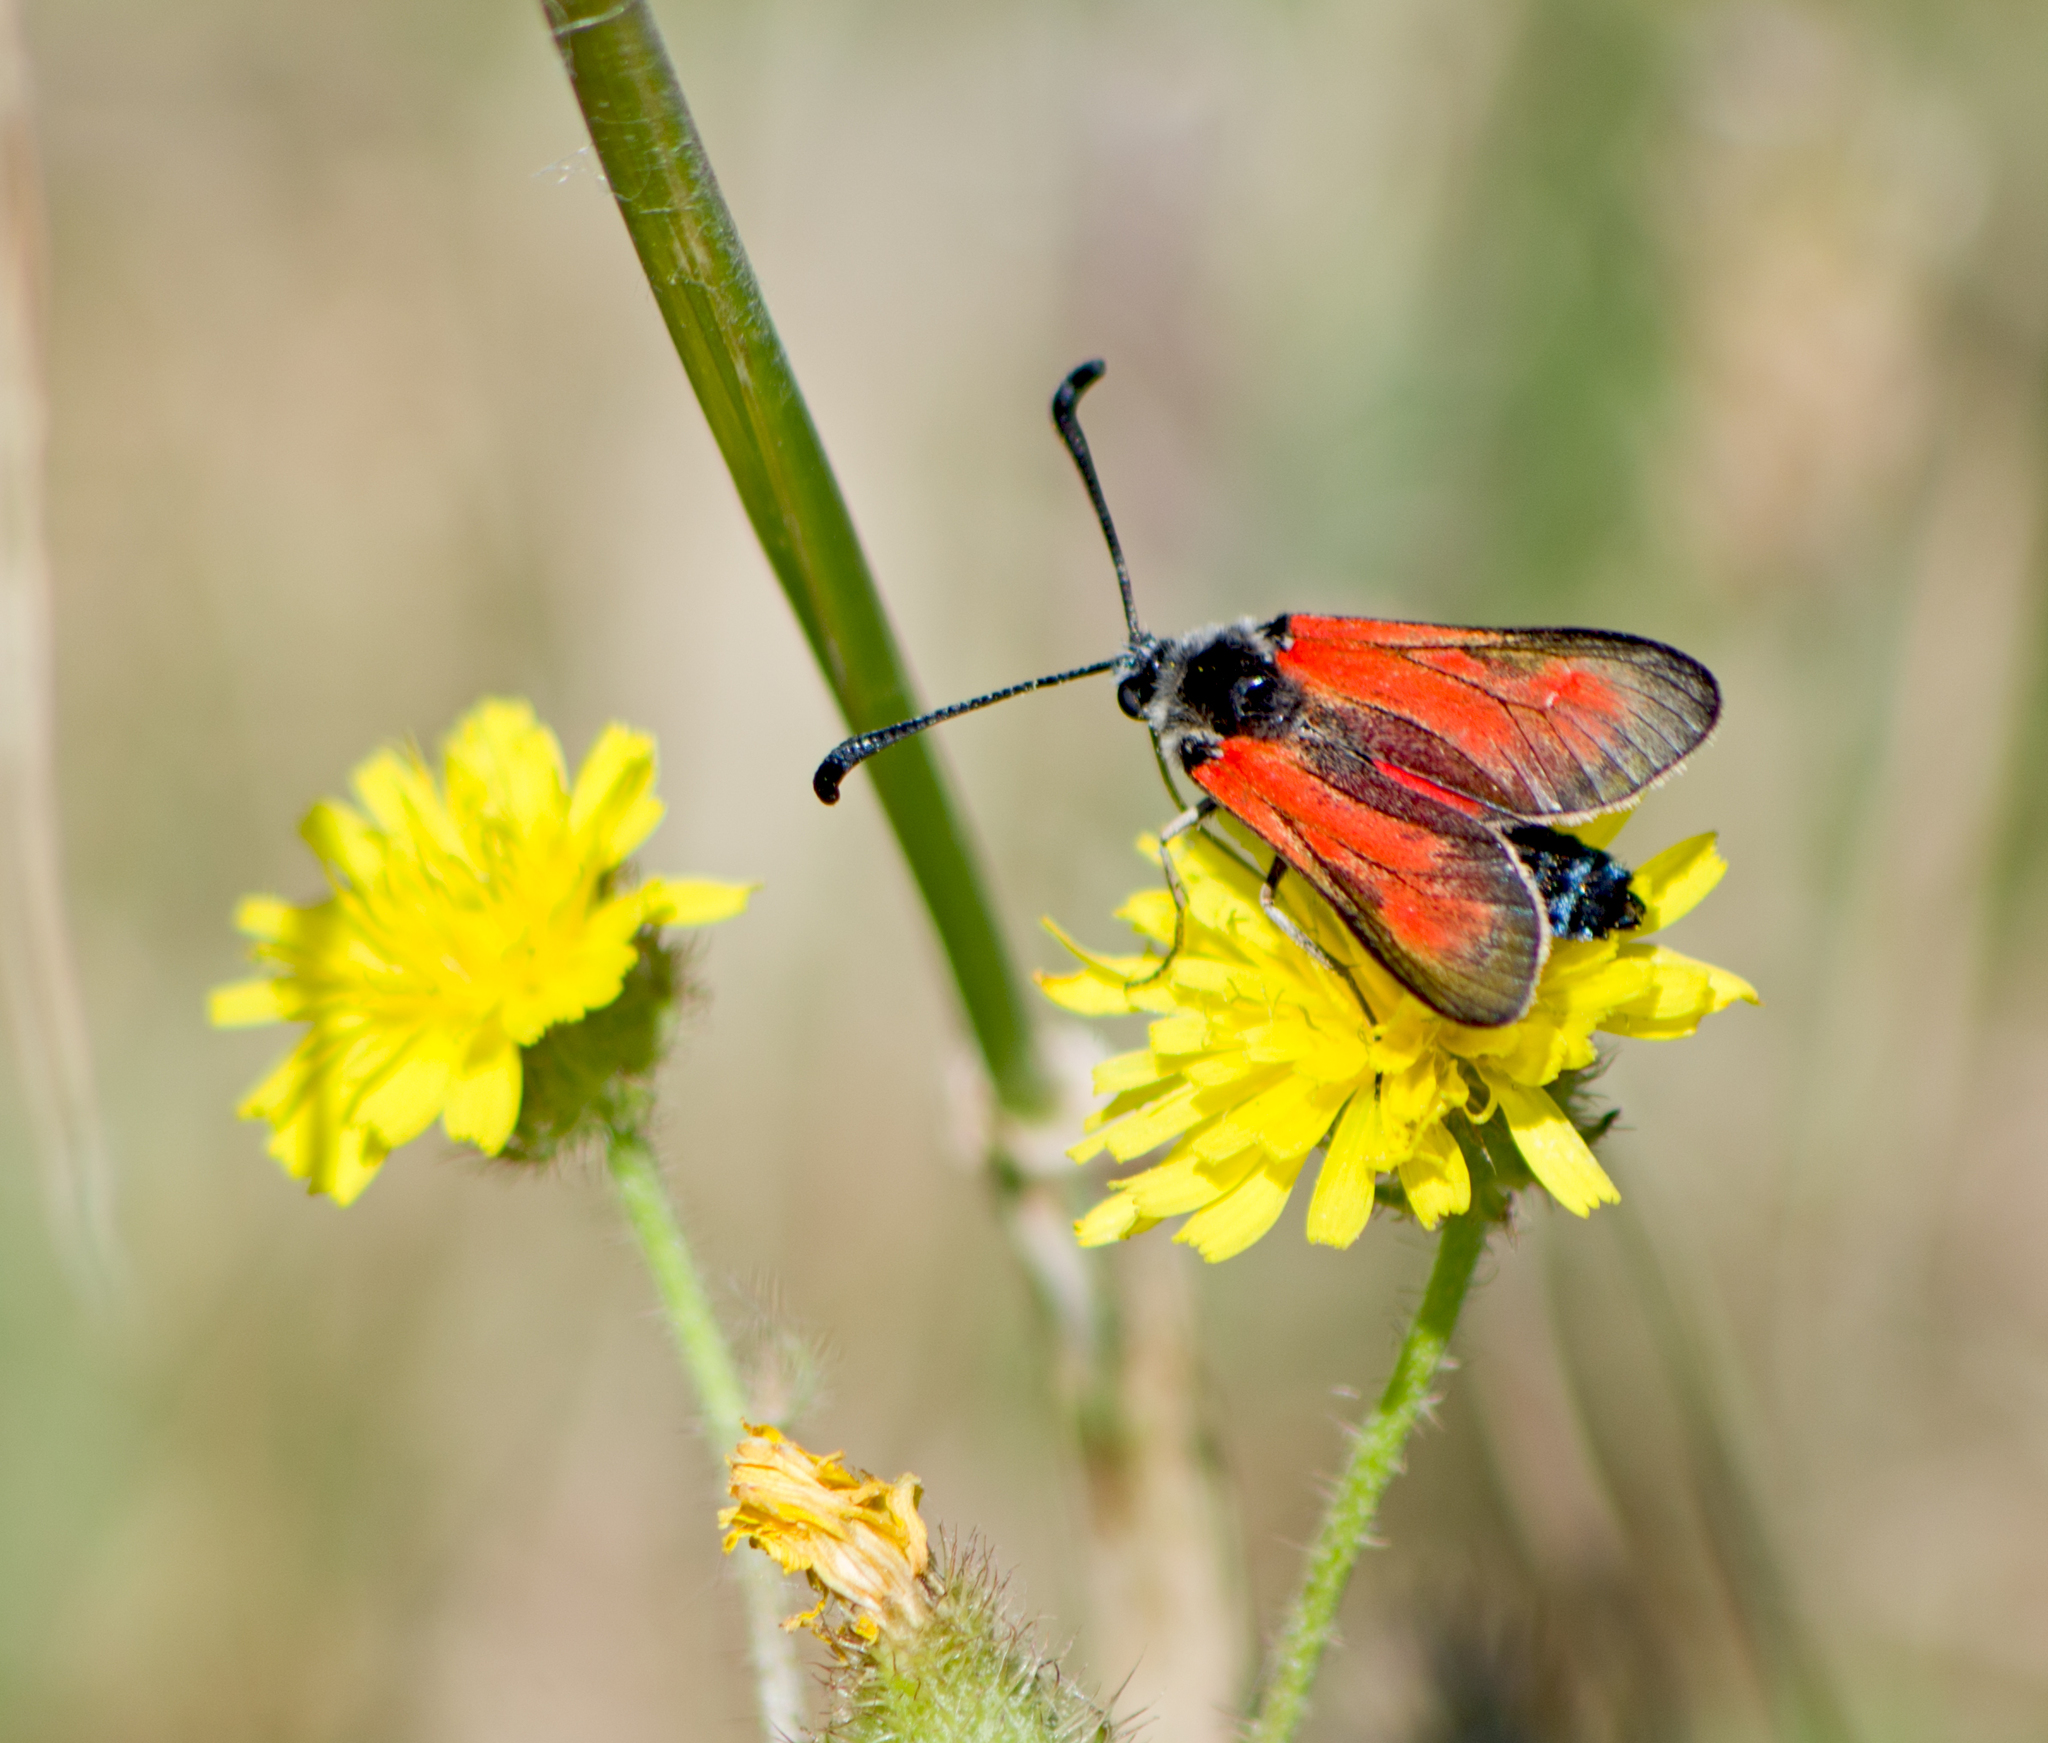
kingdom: Animalia
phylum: Arthropoda
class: Insecta
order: Lepidoptera
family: Zygaenidae
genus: Zygaena
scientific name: Zygaena punctum
